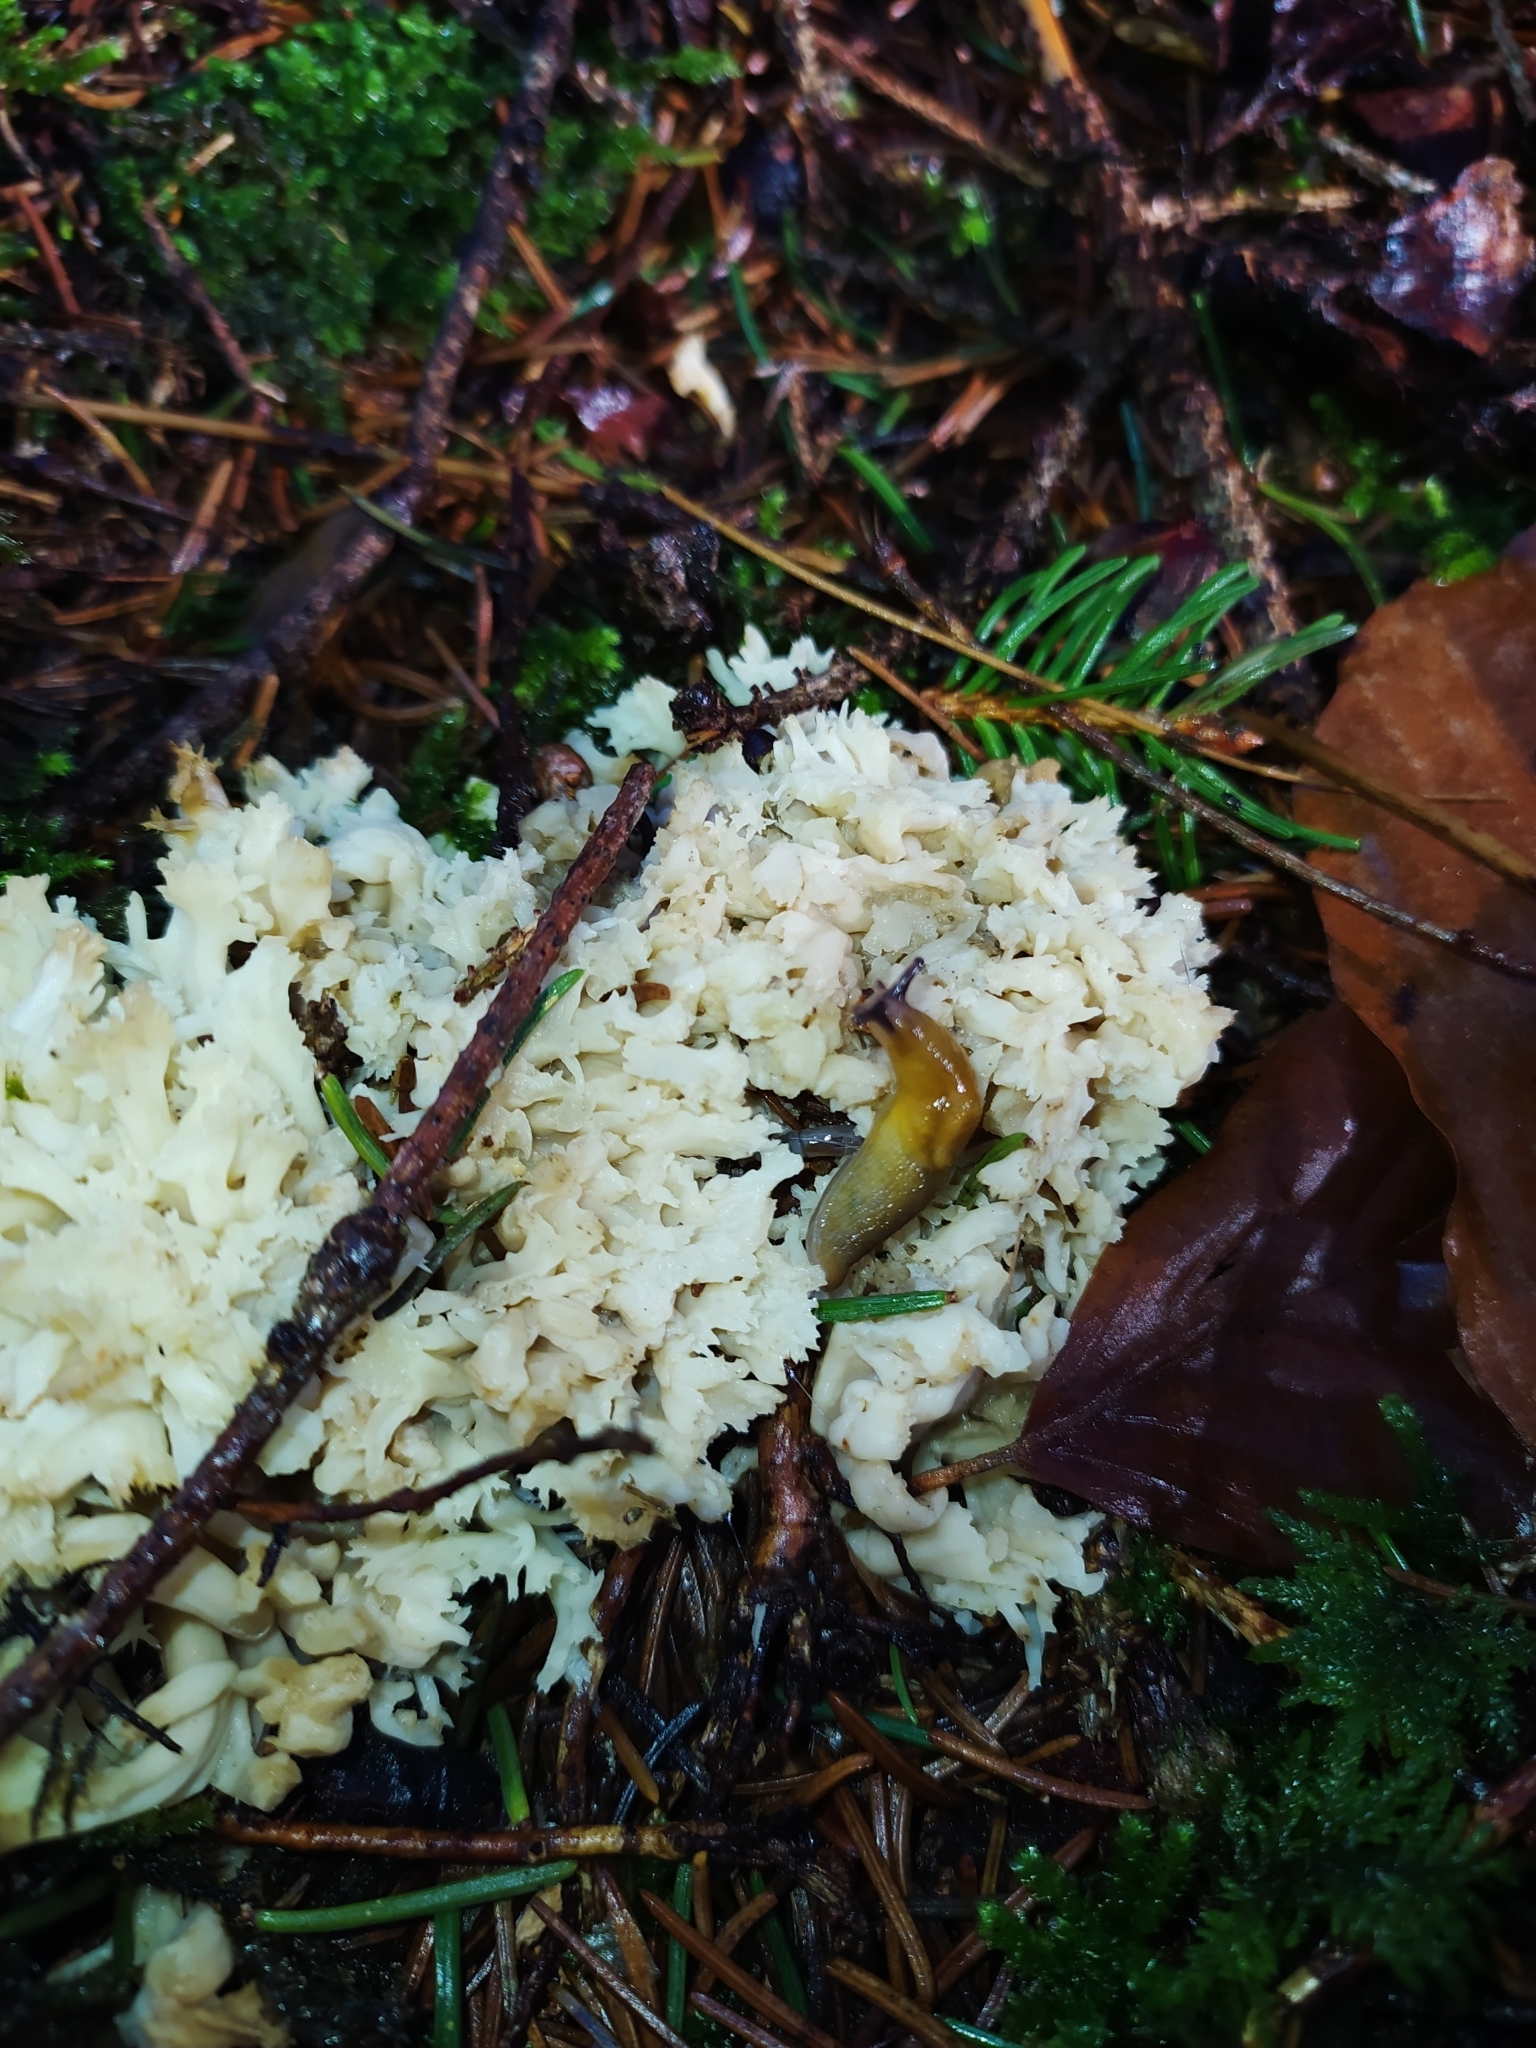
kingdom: Animalia
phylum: Mollusca
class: Gastropoda
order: Stylommatophora
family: Limacidae
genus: Malacolimax
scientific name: Malacolimax tenellus
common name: Lemon slug
